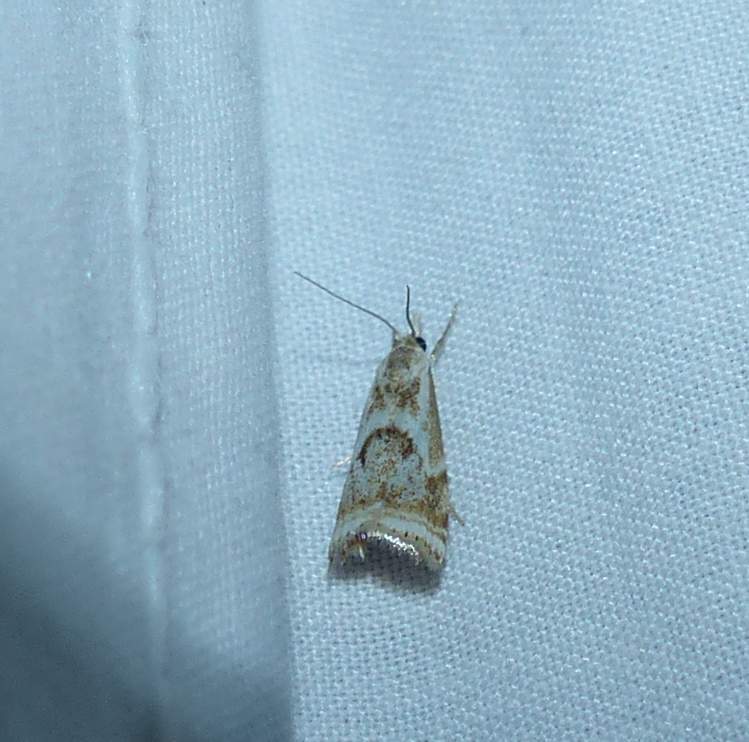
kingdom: Animalia
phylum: Arthropoda
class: Insecta
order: Lepidoptera
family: Crambidae
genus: Microcrambus
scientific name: Microcrambus elegans
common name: Elegant grass-veneer
